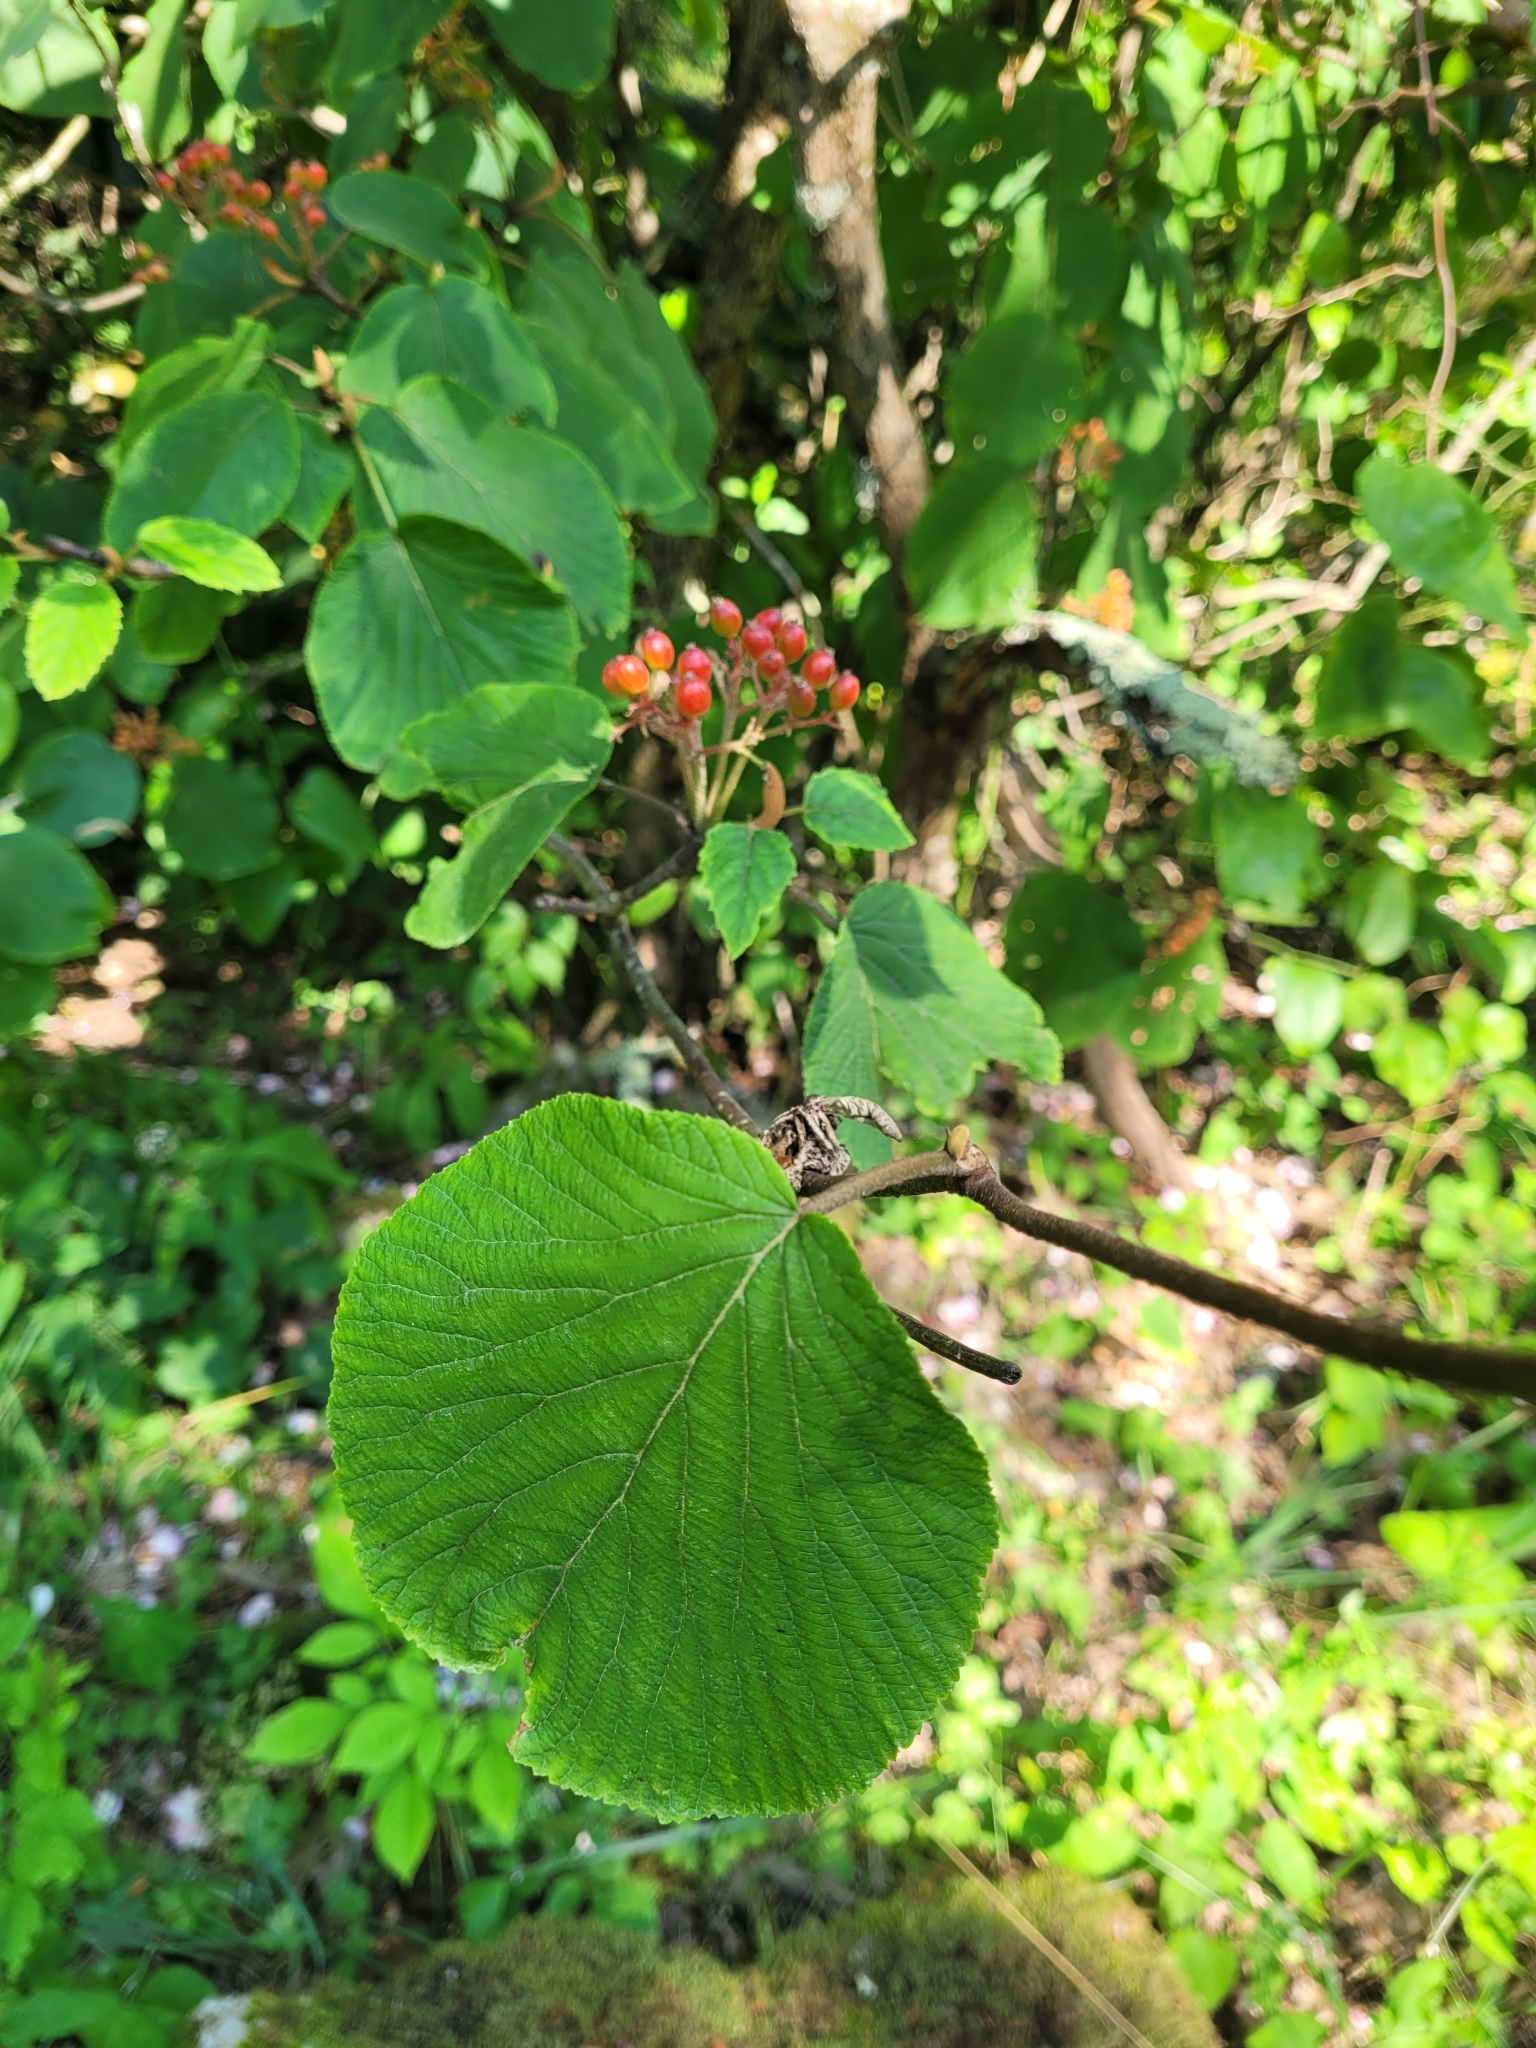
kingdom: Plantae
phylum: Tracheophyta
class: Magnoliopsida
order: Dipsacales
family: Viburnaceae
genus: Viburnum
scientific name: Viburnum lantanoides
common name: Hobblebush
